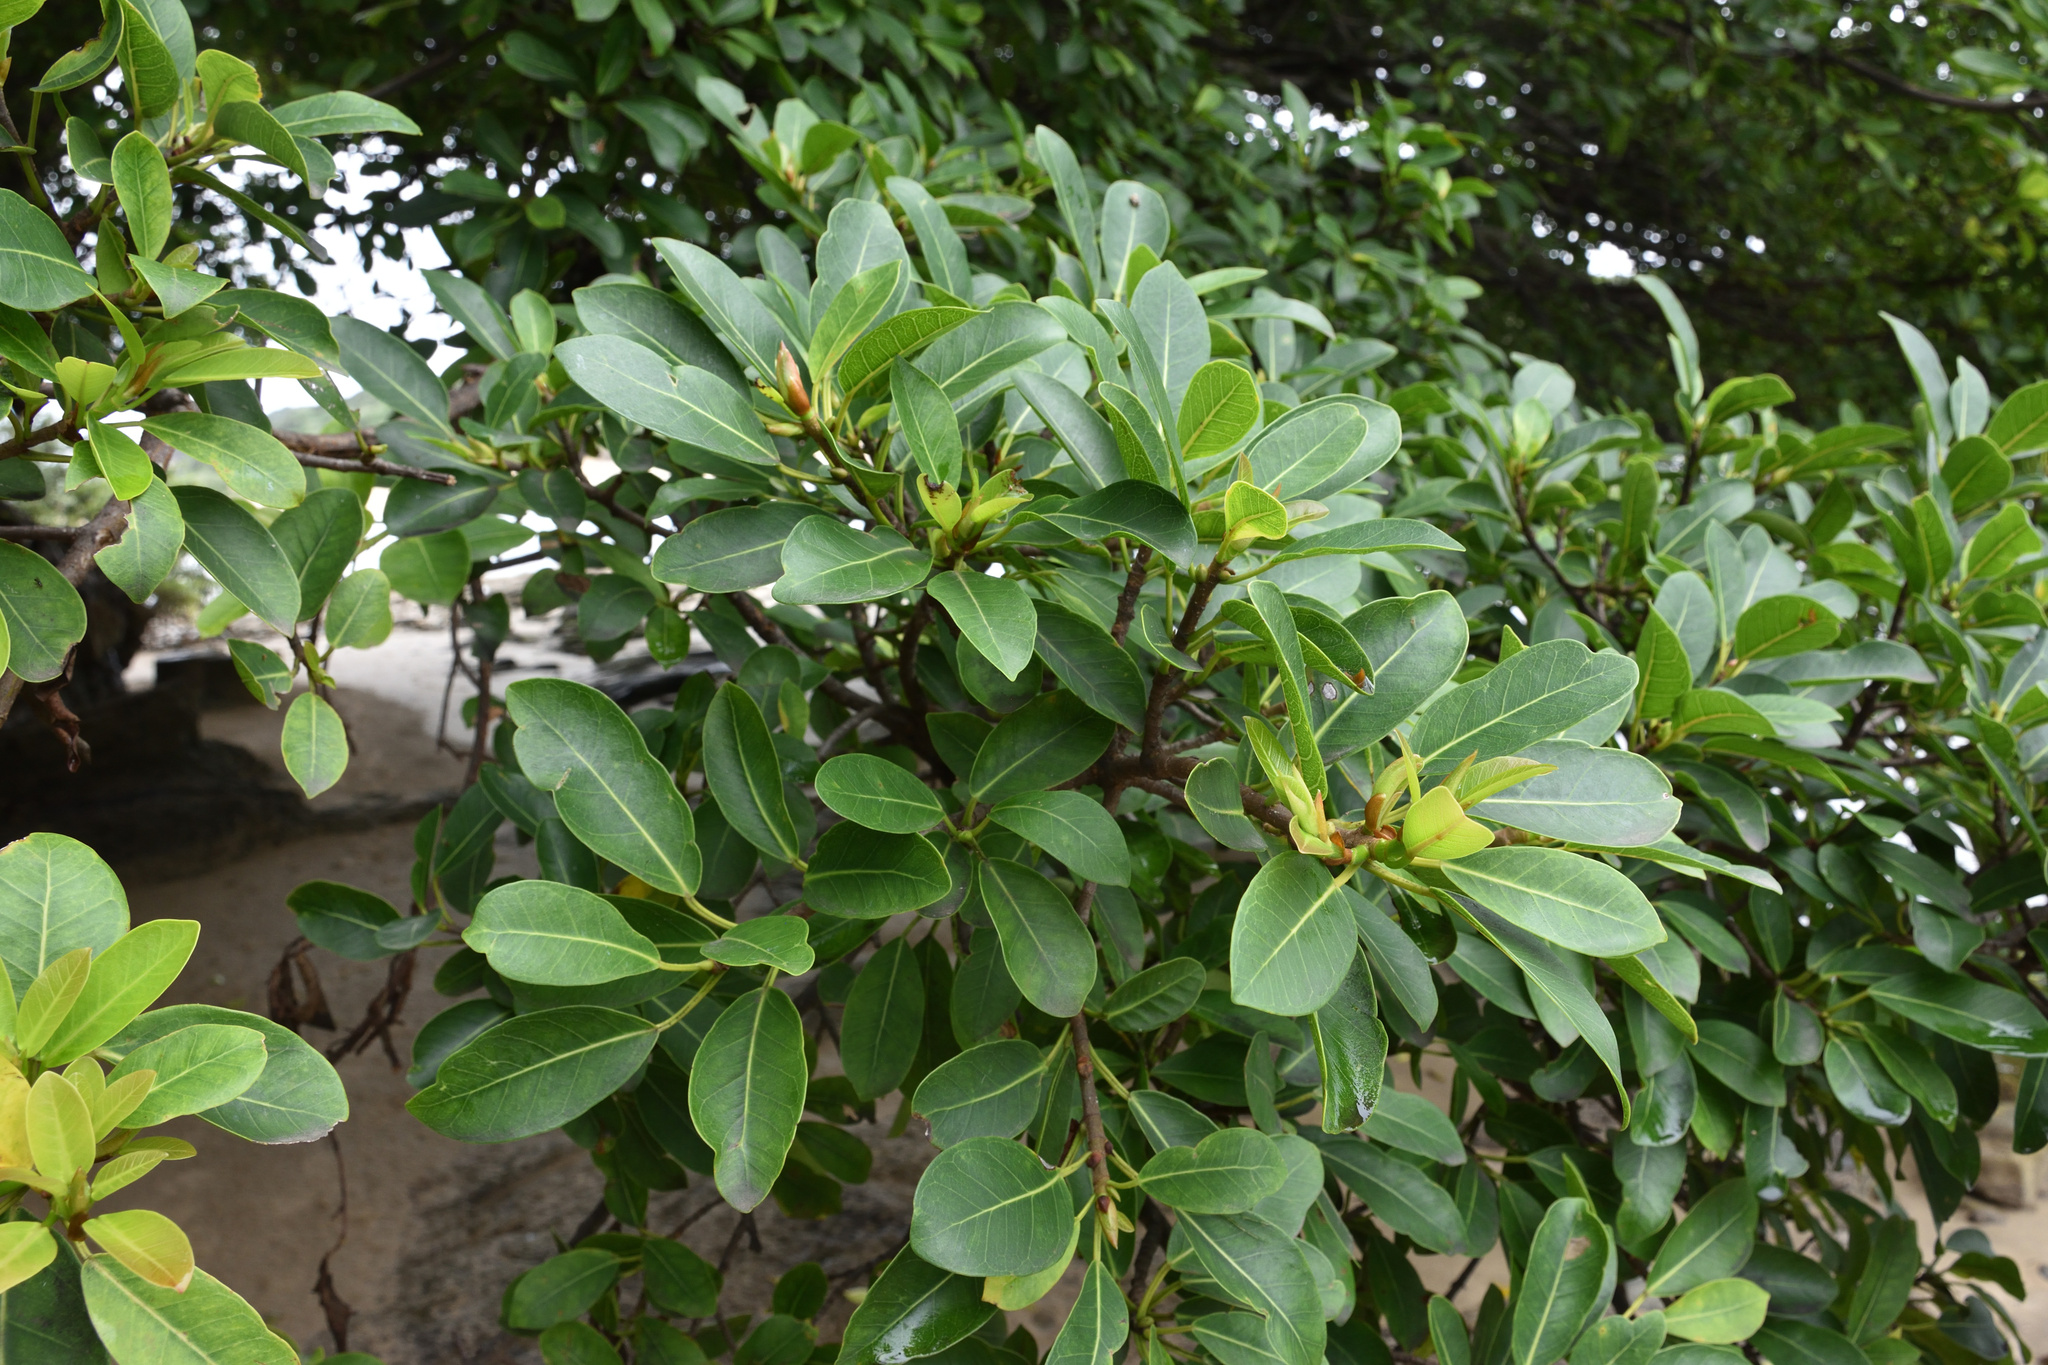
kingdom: Plantae
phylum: Tracheophyta
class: Magnoliopsida
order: Rosales
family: Moraceae
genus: Ficus
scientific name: Ficus thonningii
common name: Fig
